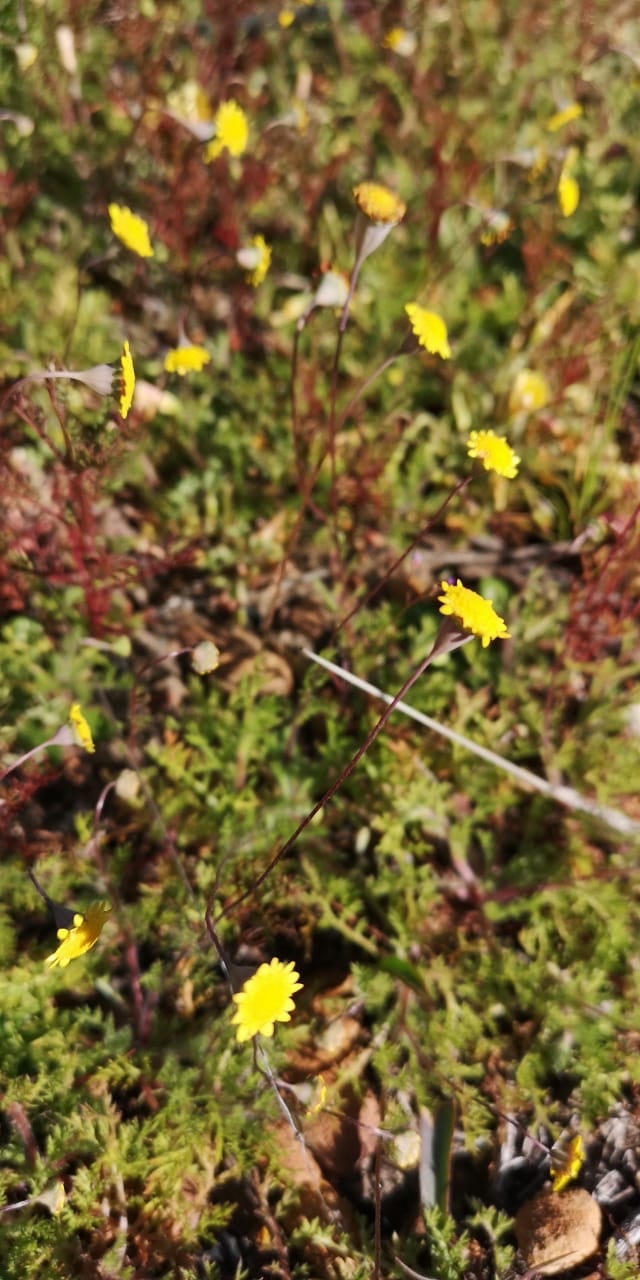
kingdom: Plantae
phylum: Tracheophyta
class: Magnoliopsida
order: Asterales
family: Asteraceae
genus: Cotula
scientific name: Cotula pruinosa
